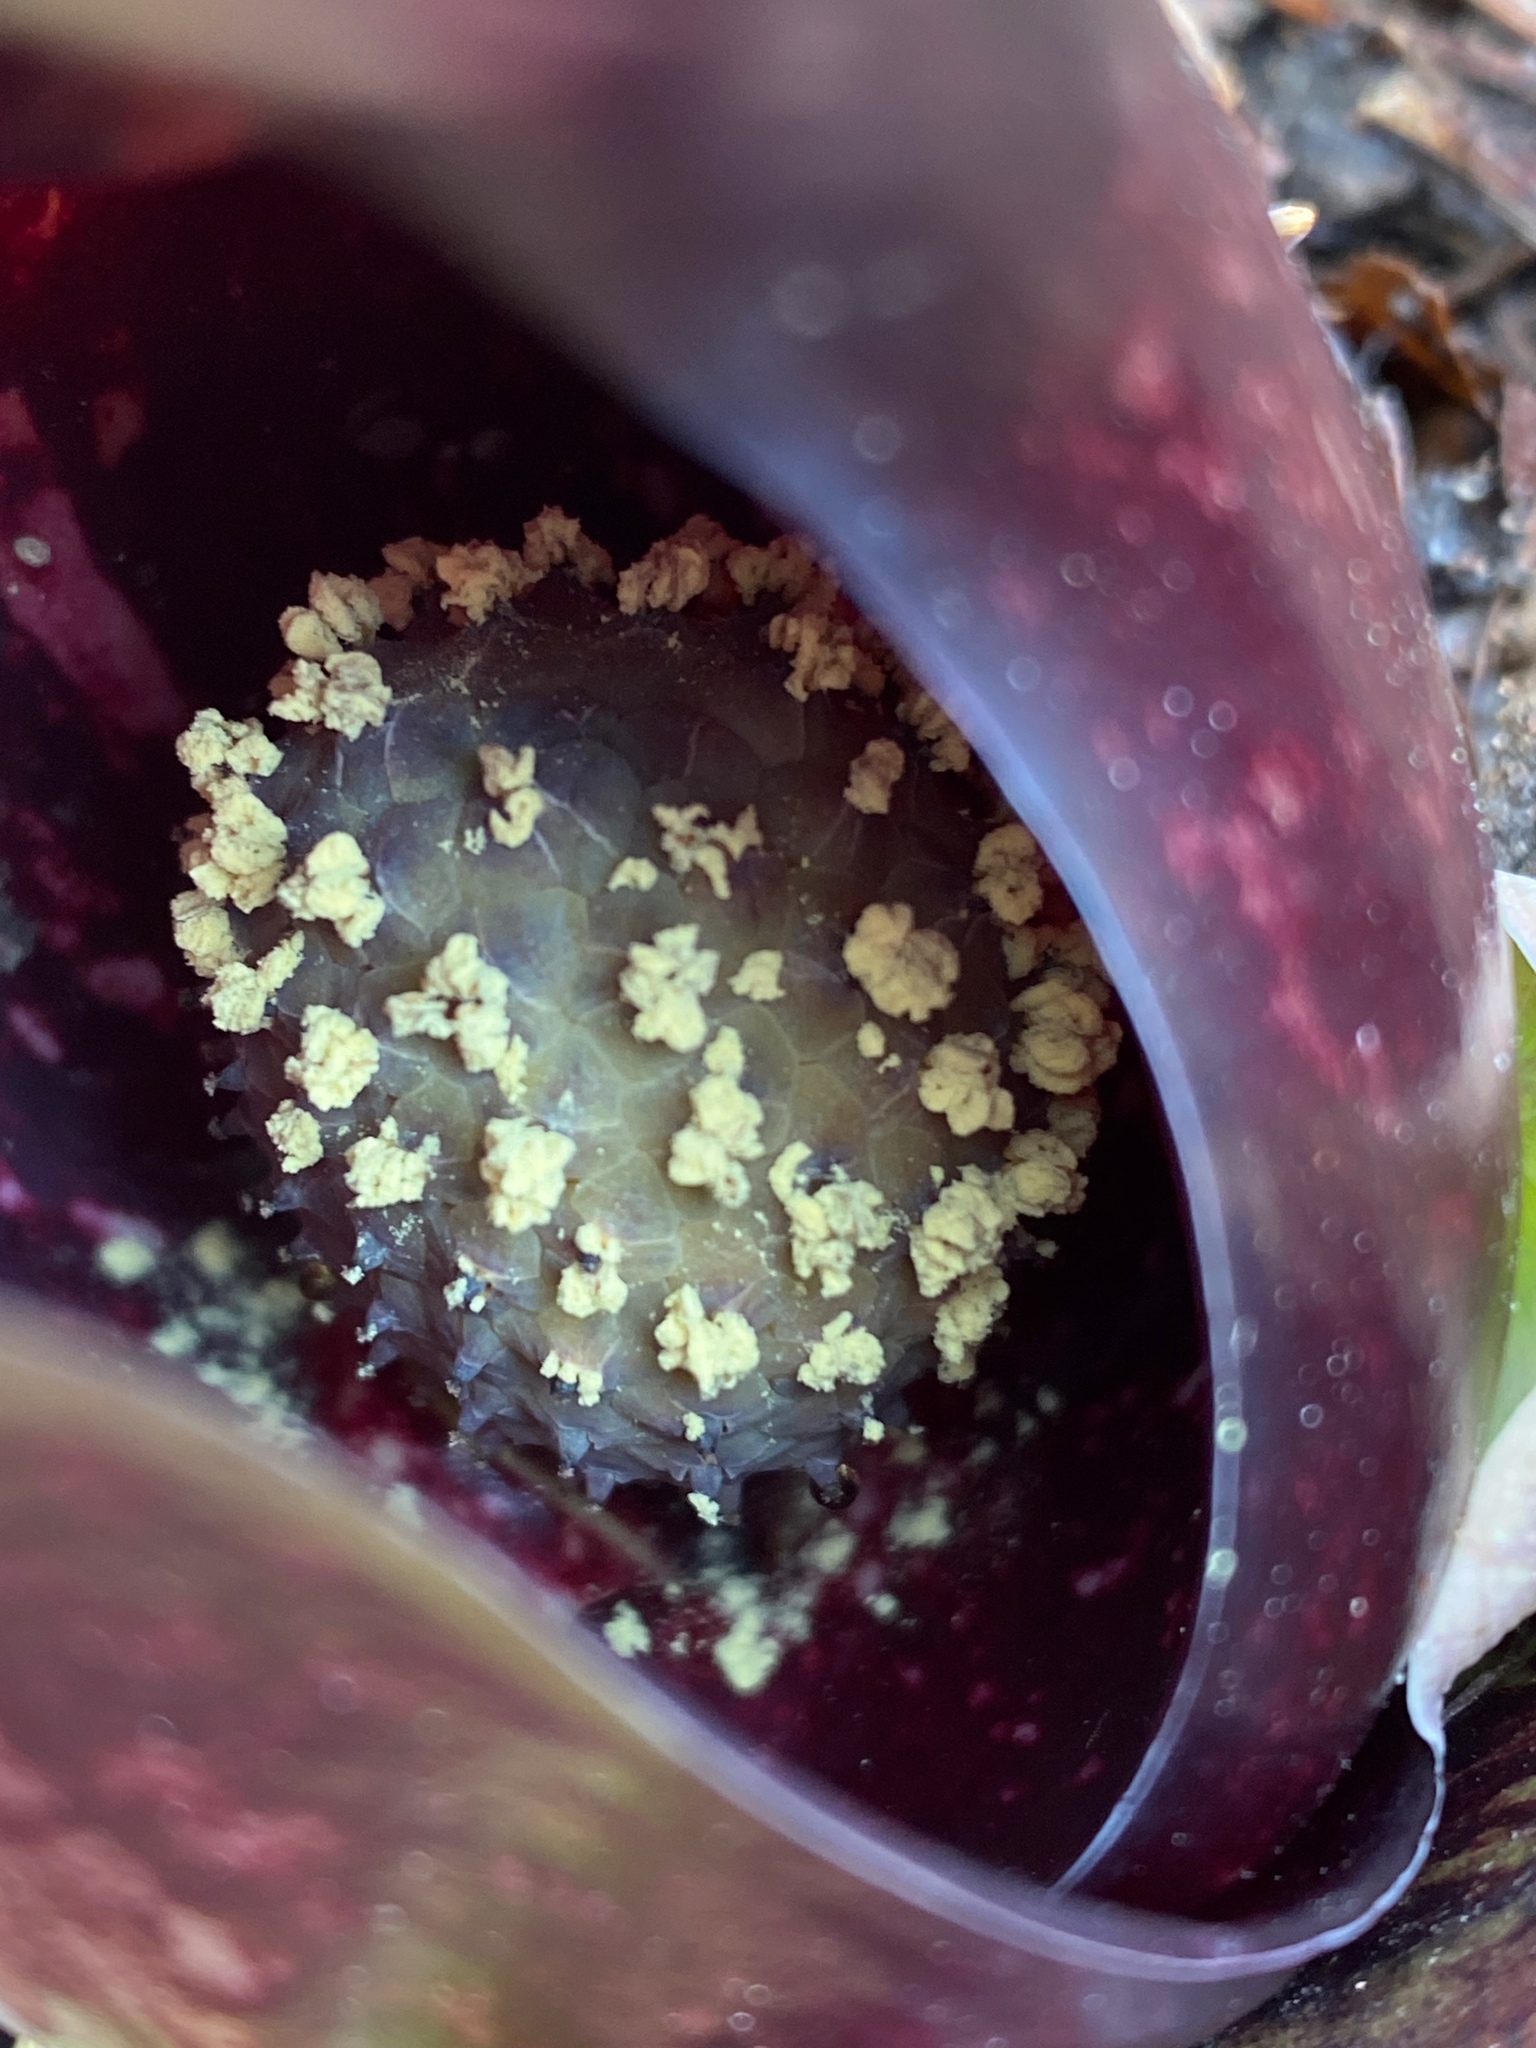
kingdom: Plantae
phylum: Tracheophyta
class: Liliopsida
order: Alismatales
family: Araceae
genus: Symplocarpus
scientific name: Symplocarpus foetidus
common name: Eastern skunk cabbage
